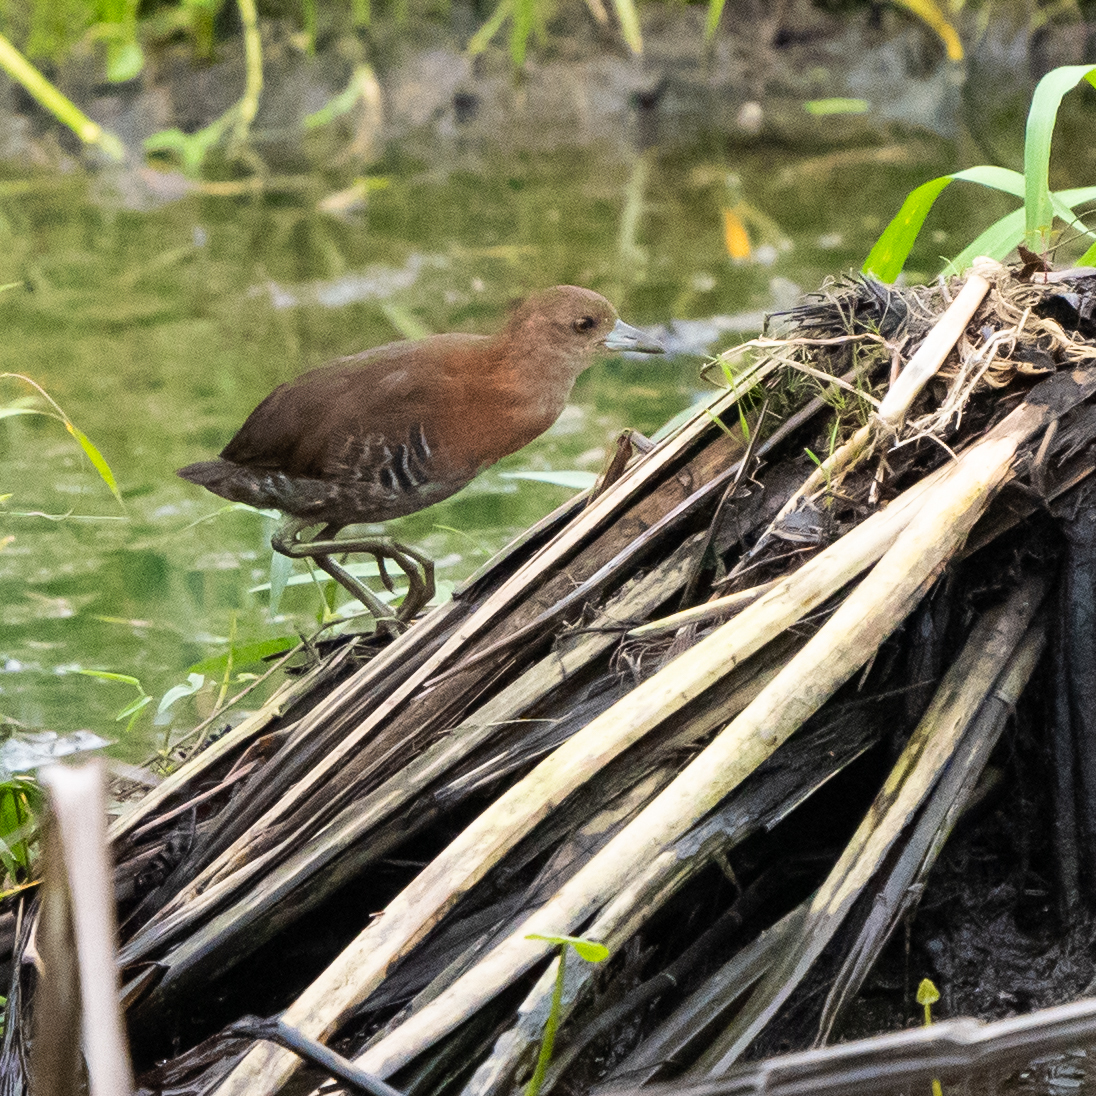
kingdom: Animalia
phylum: Chordata
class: Aves
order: Gruiformes
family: Rallidae
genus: Laterallus
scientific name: Laterallus albigularis
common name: White-throated crake
